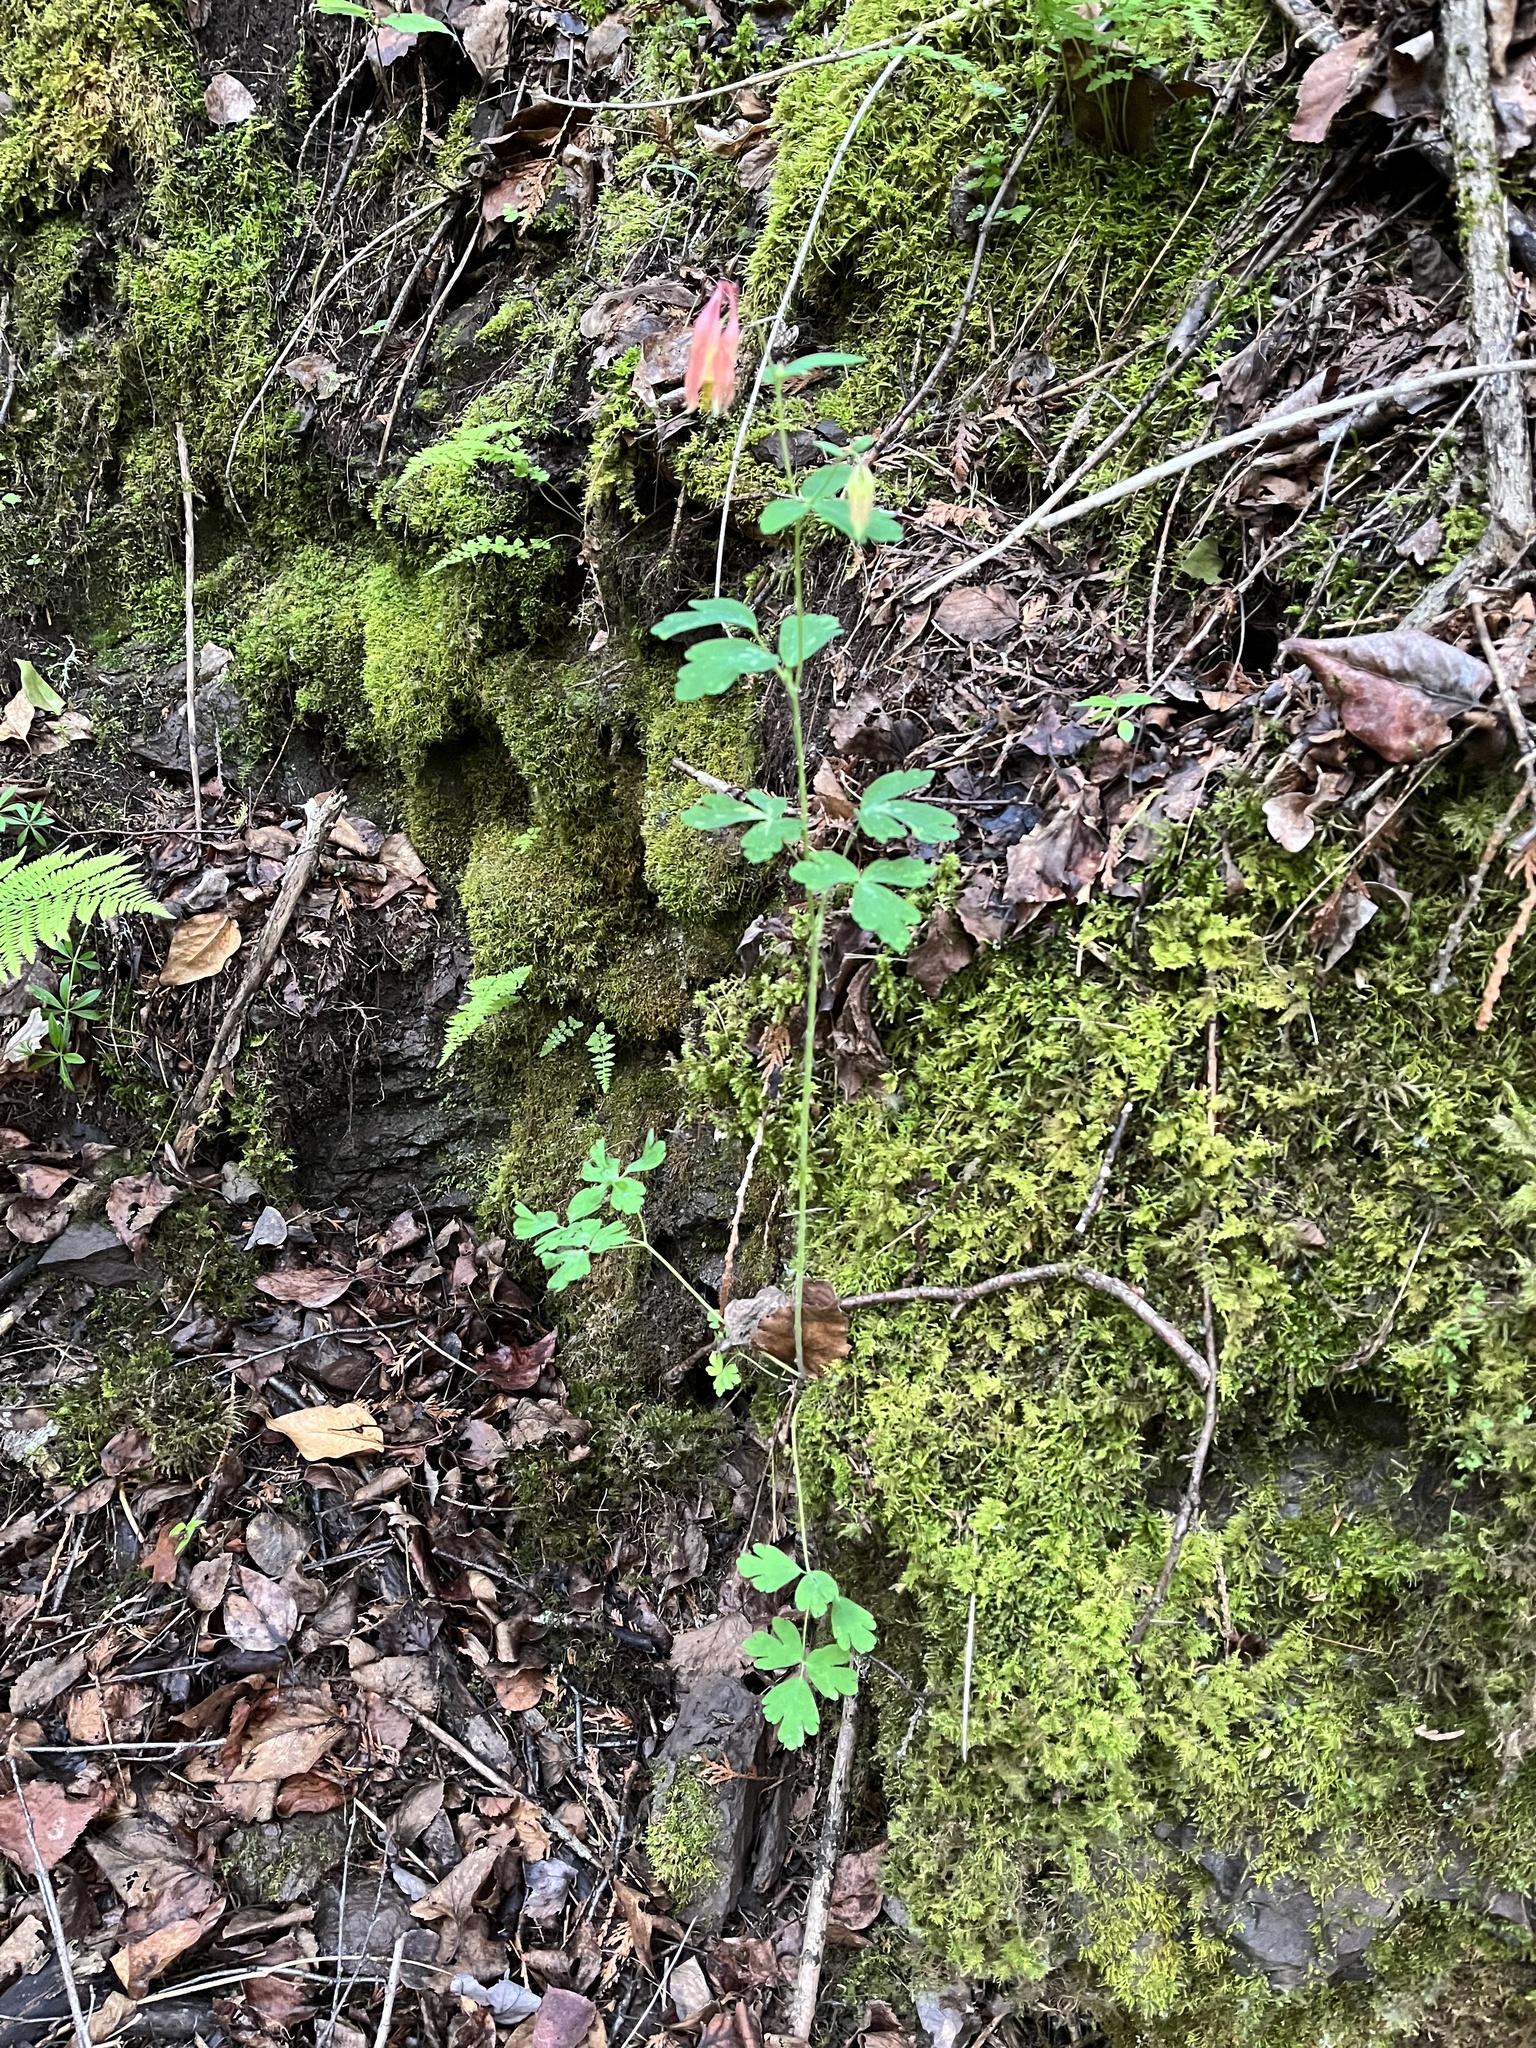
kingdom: Plantae
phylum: Tracheophyta
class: Magnoliopsida
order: Ranunculales
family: Ranunculaceae
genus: Aquilegia
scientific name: Aquilegia canadensis
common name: American columbine
